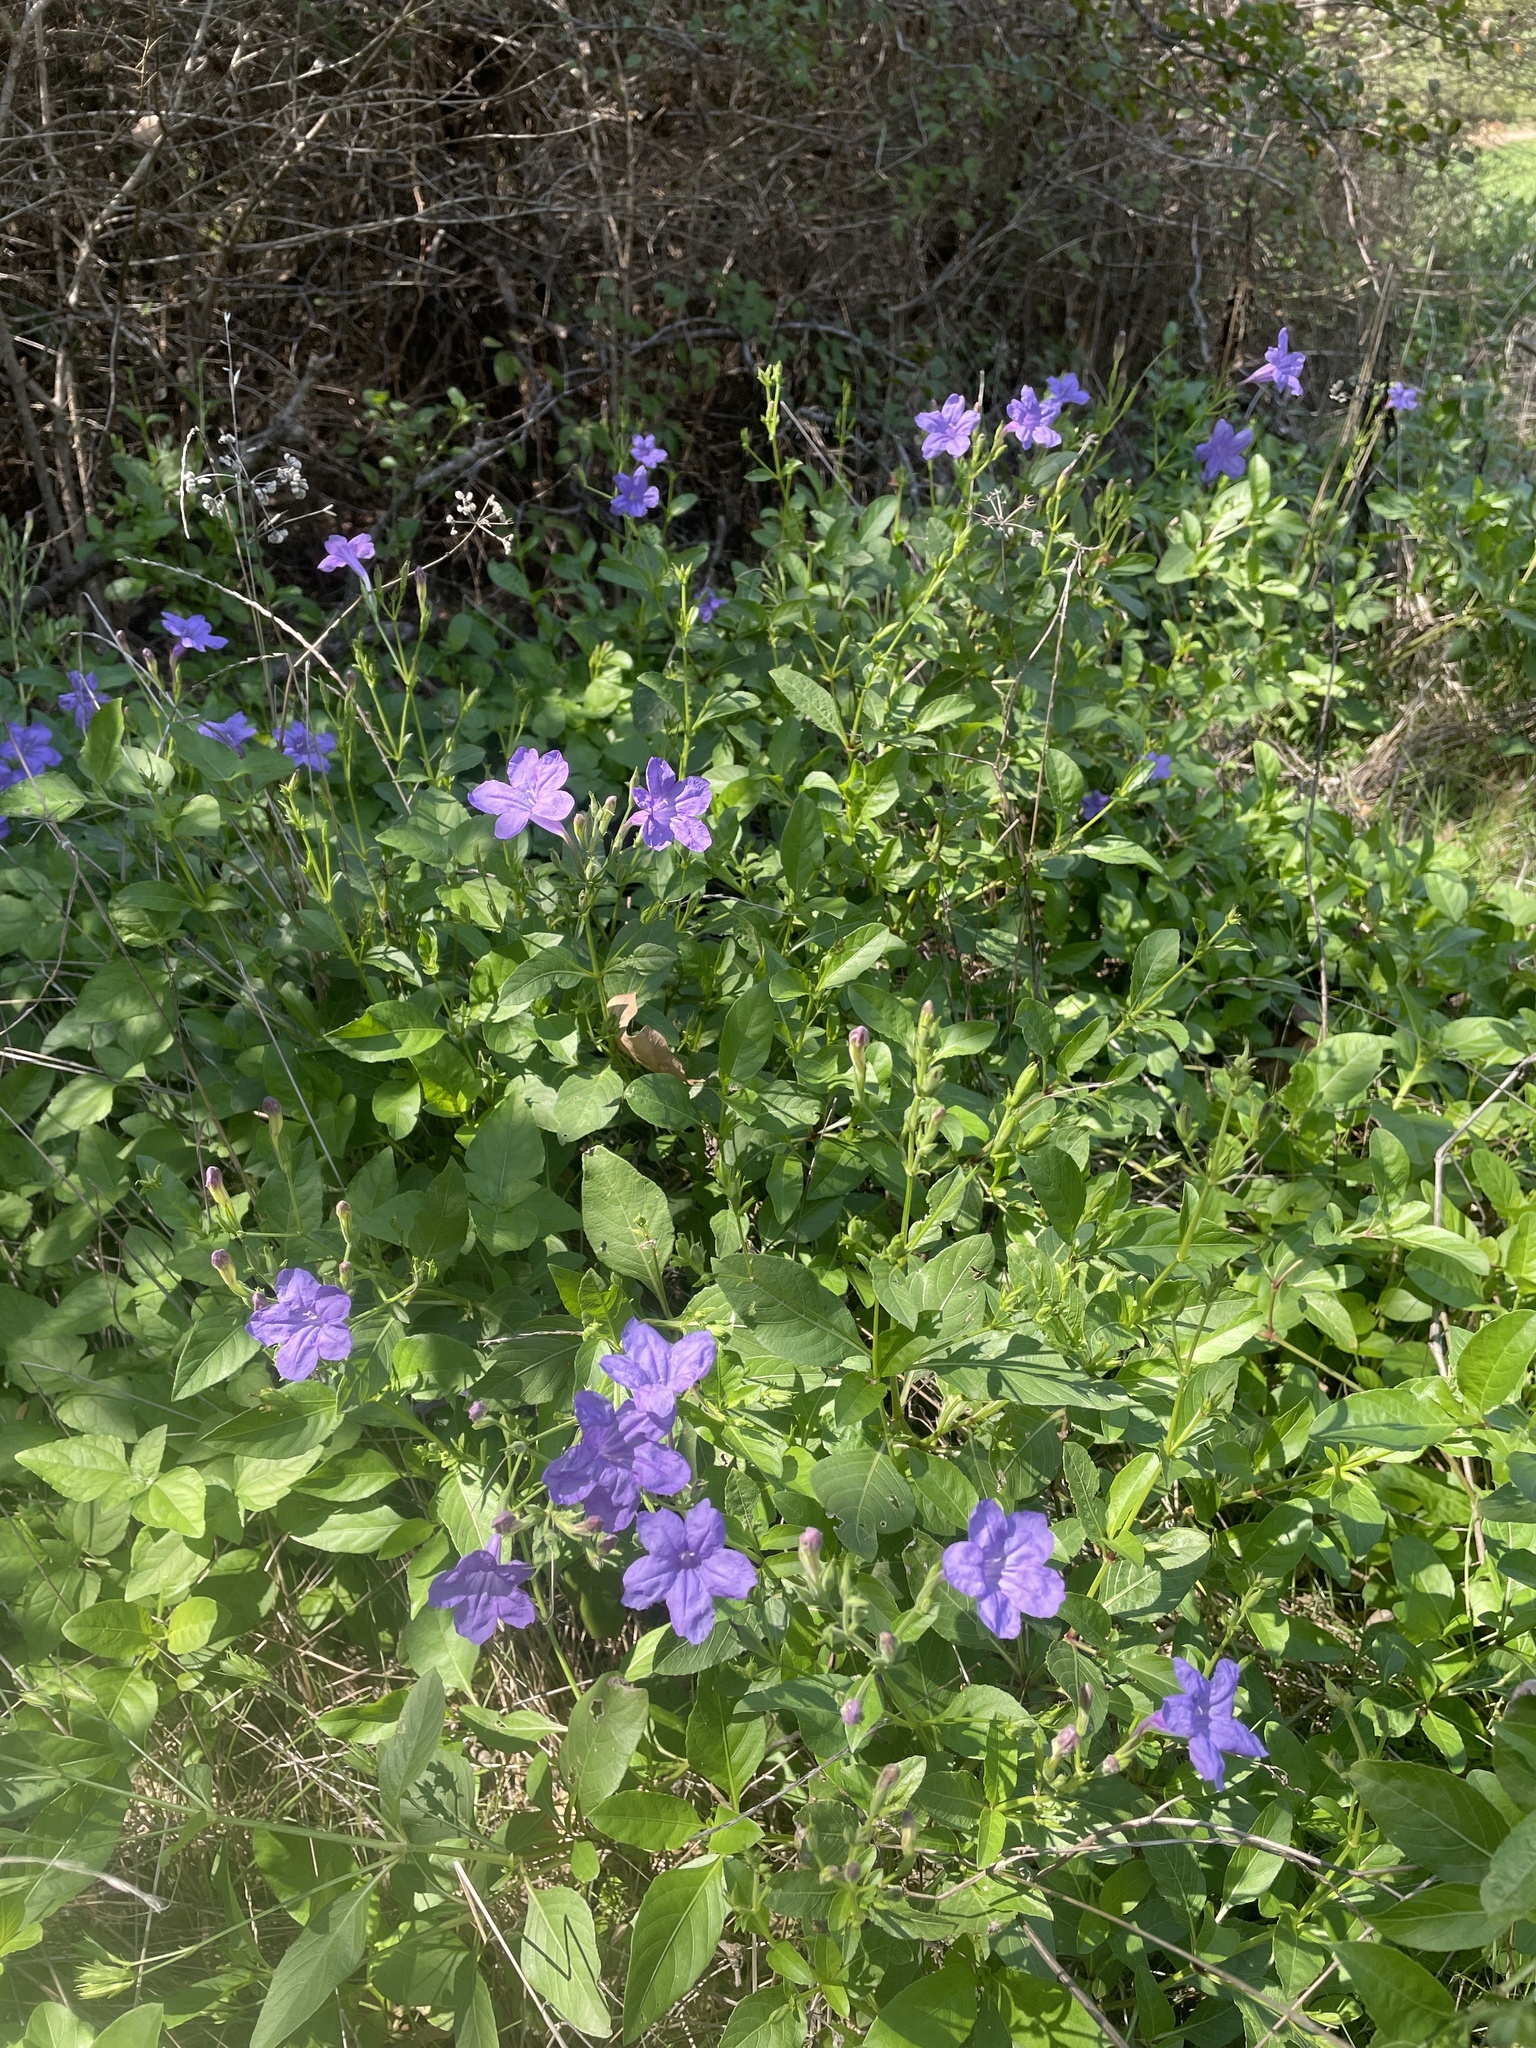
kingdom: Plantae
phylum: Tracheophyta
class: Magnoliopsida
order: Lamiales
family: Acanthaceae
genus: Ruellia
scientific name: Ruellia ciliatiflora
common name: Hairyflower wild petunia
